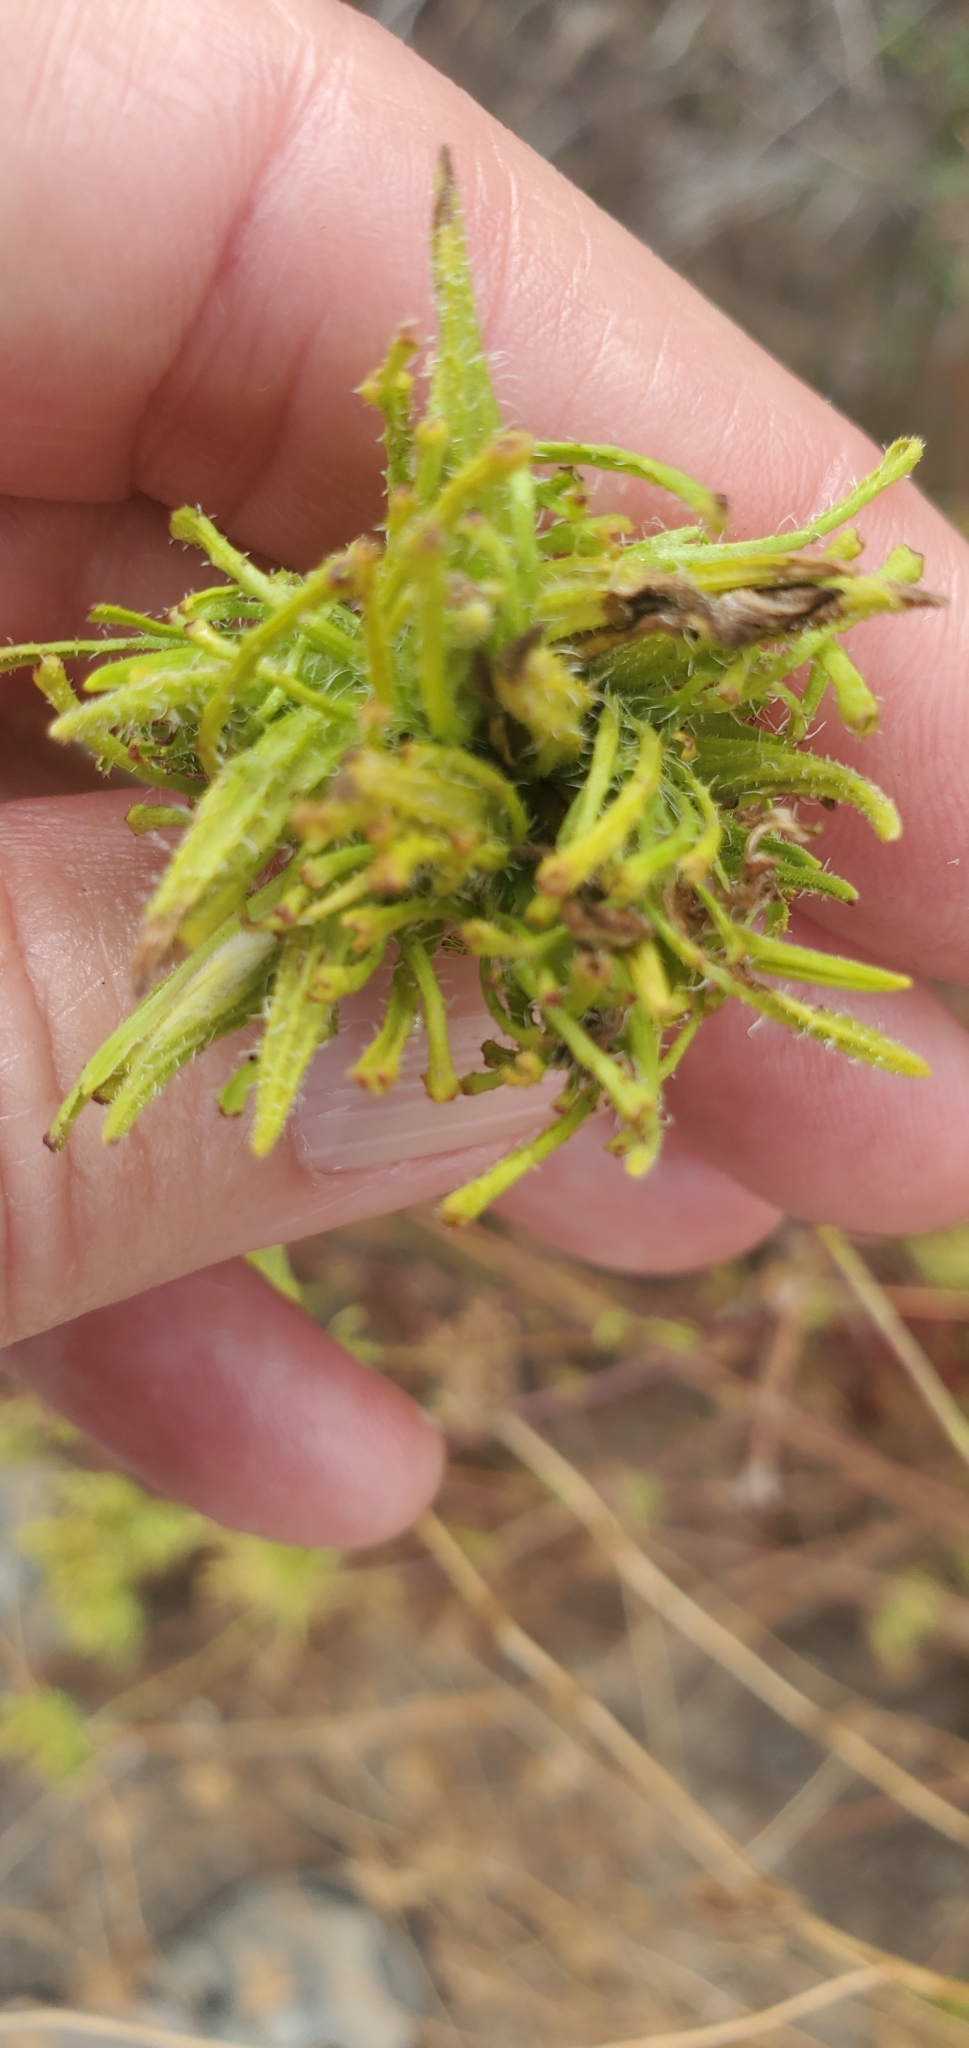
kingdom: Plantae
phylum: Tracheophyta
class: Magnoliopsida
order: Lamiales
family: Orobanchaceae
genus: Cordylanthus
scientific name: Cordylanthus rigidus
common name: Stiff-branch bird's-beak
